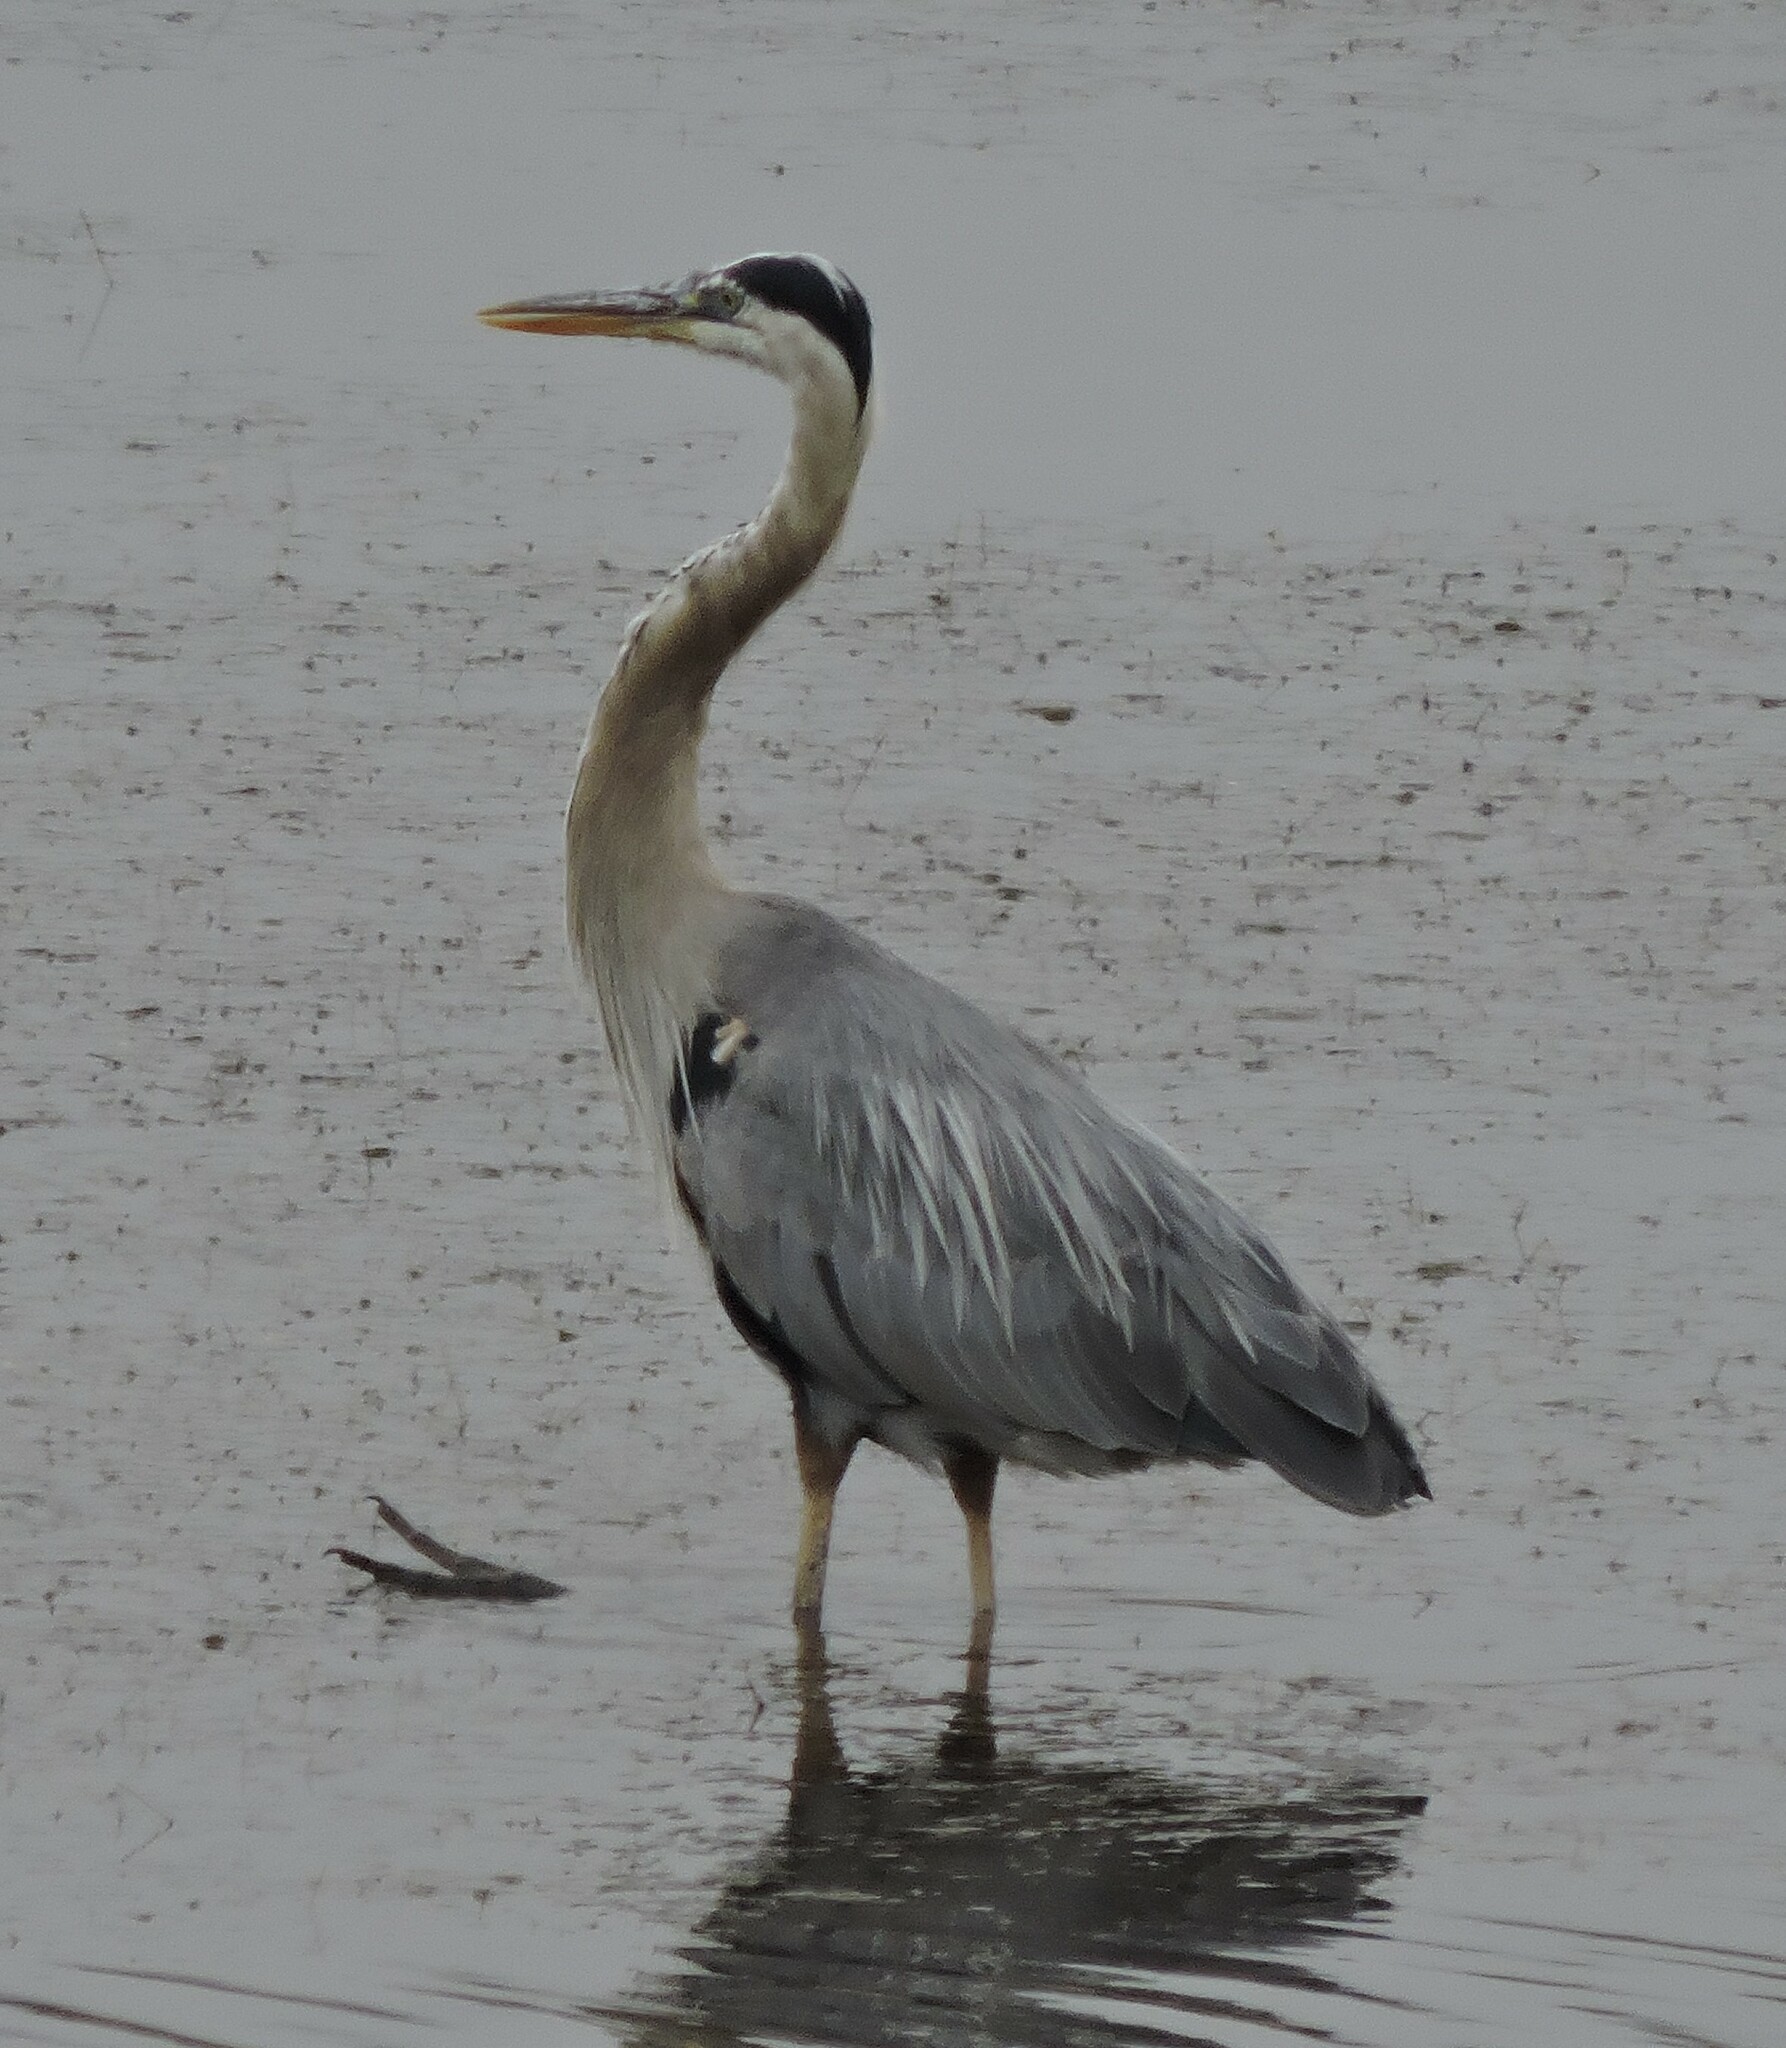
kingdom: Animalia
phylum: Chordata
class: Aves
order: Pelecaniformes
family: Ardeidae
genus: Ardea
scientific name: Ardea herodias
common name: Great blue heron
